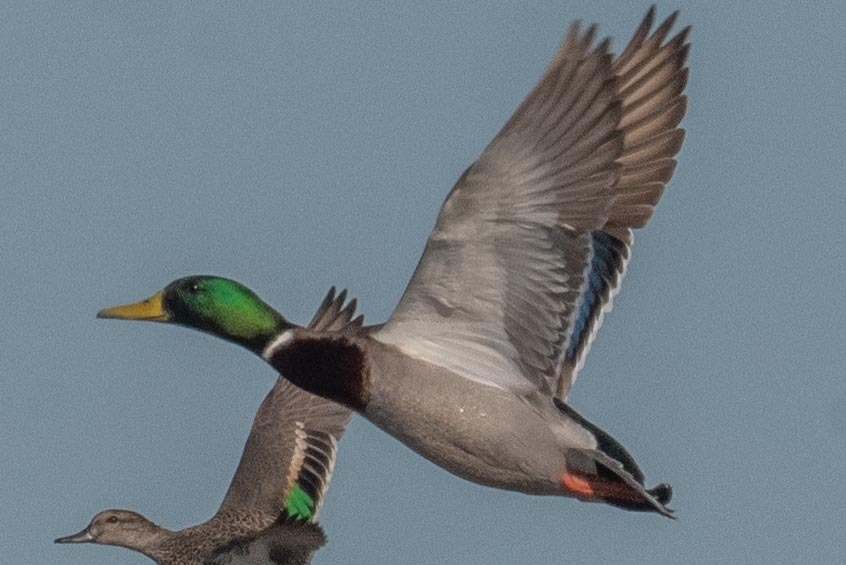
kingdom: Animalia
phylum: Chordata
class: Aves
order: Anseriformes
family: Anatidae
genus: Anas
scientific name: Anas platyrhynchos
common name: Mallard
